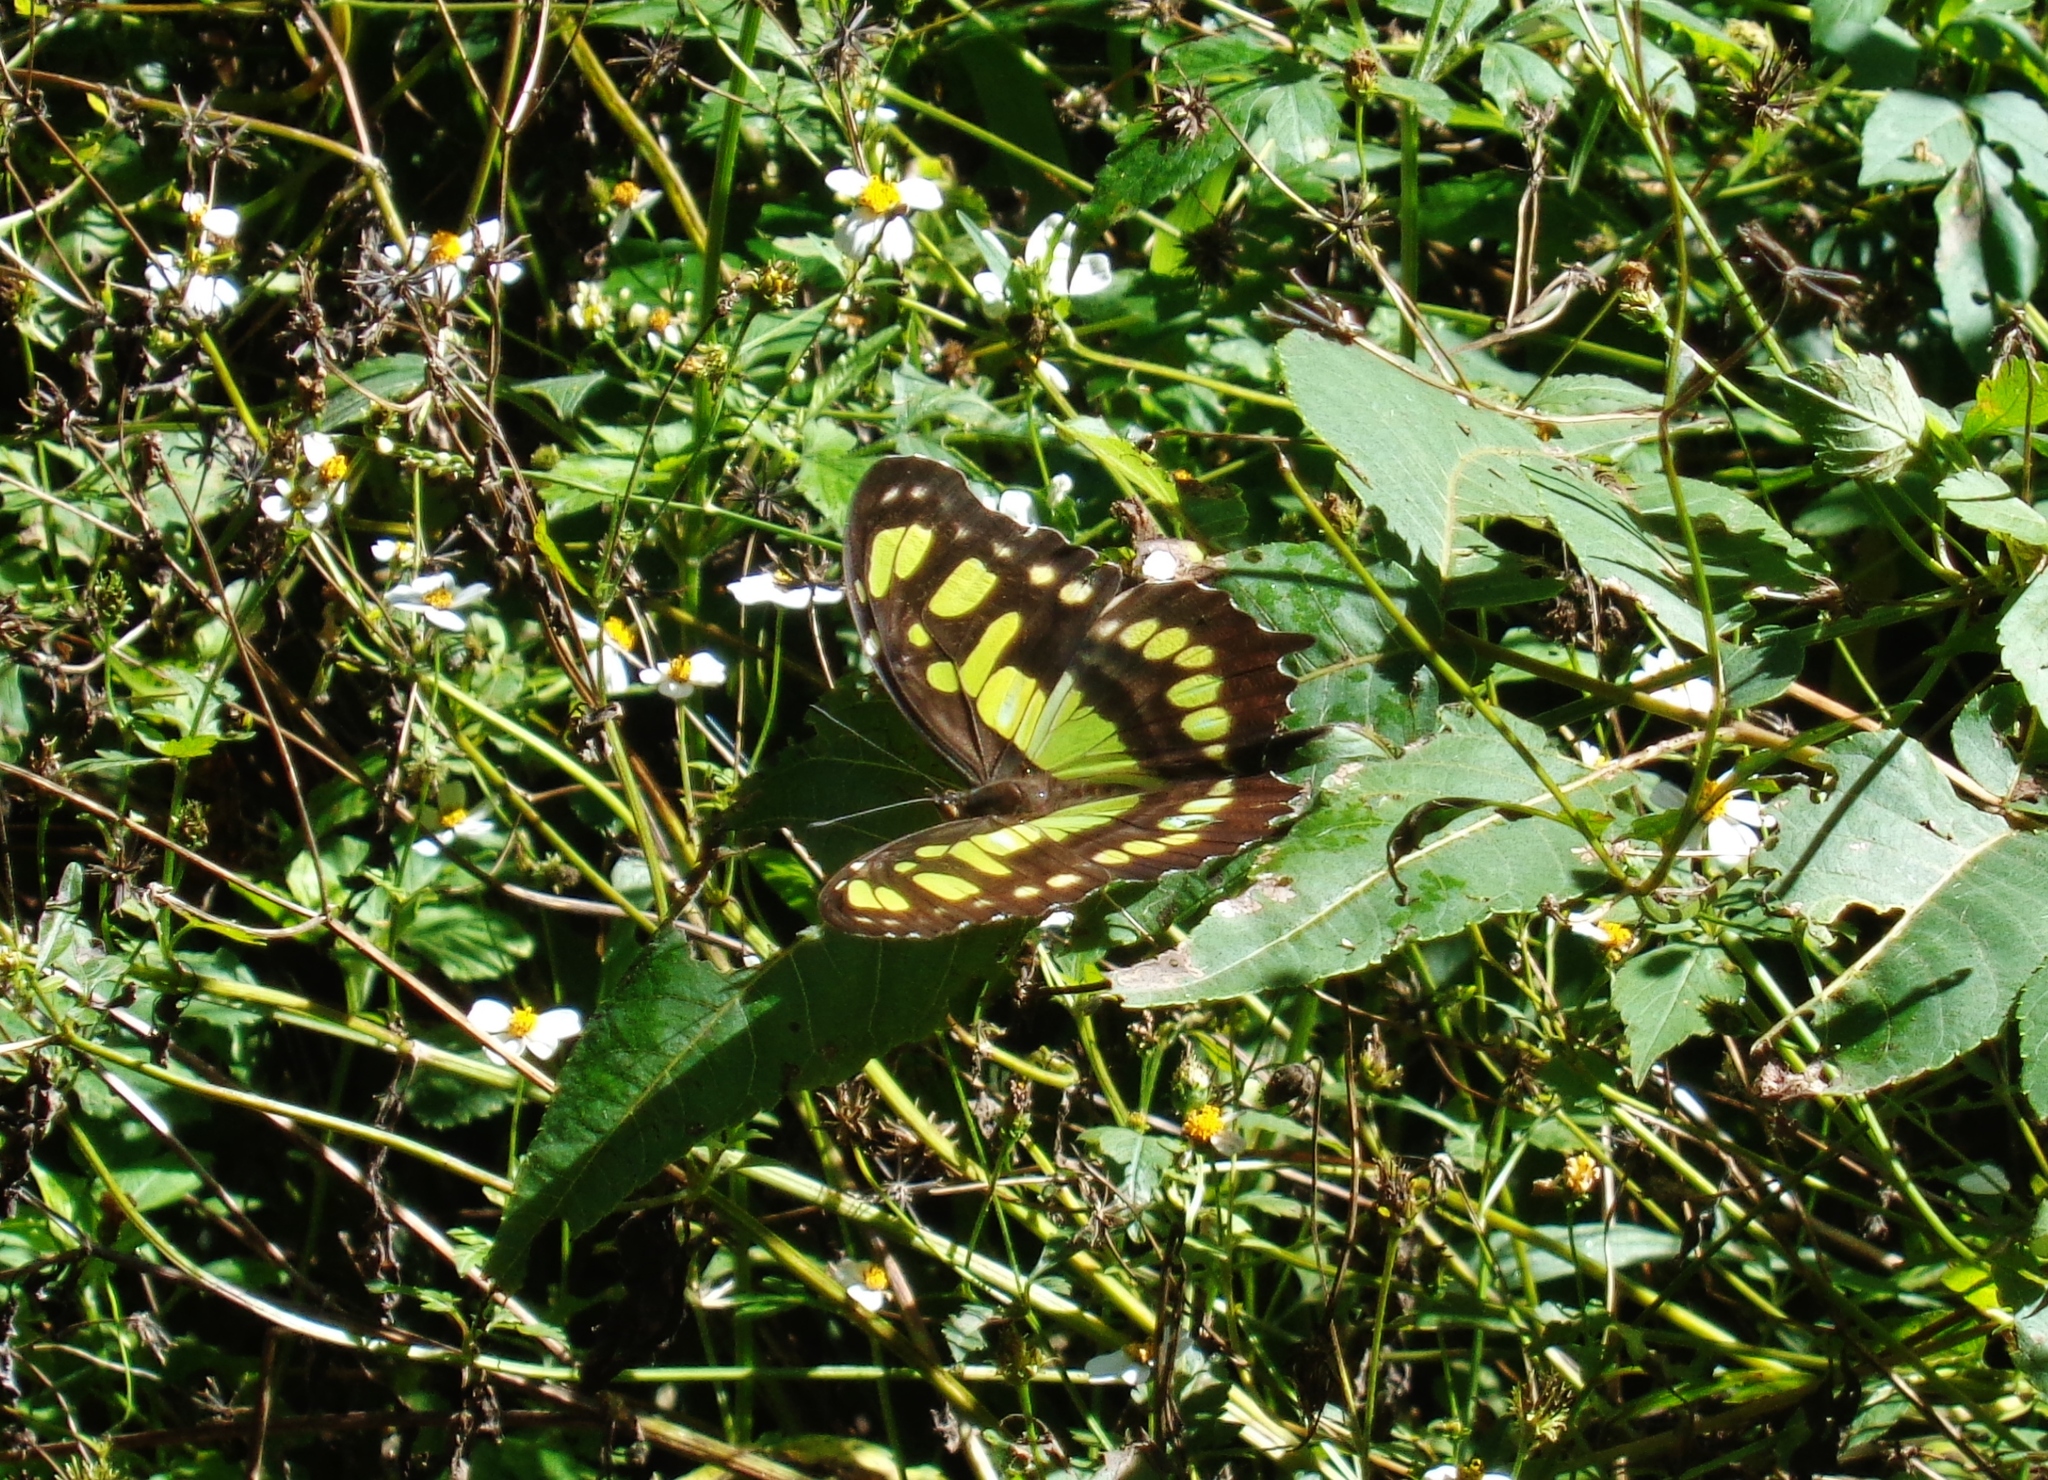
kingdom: Animalia
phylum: Arthropoda
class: Insecta
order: Lepidoptera
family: Nymphalidae
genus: Siproeta
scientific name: Siproeta stelenes
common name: Malachite
